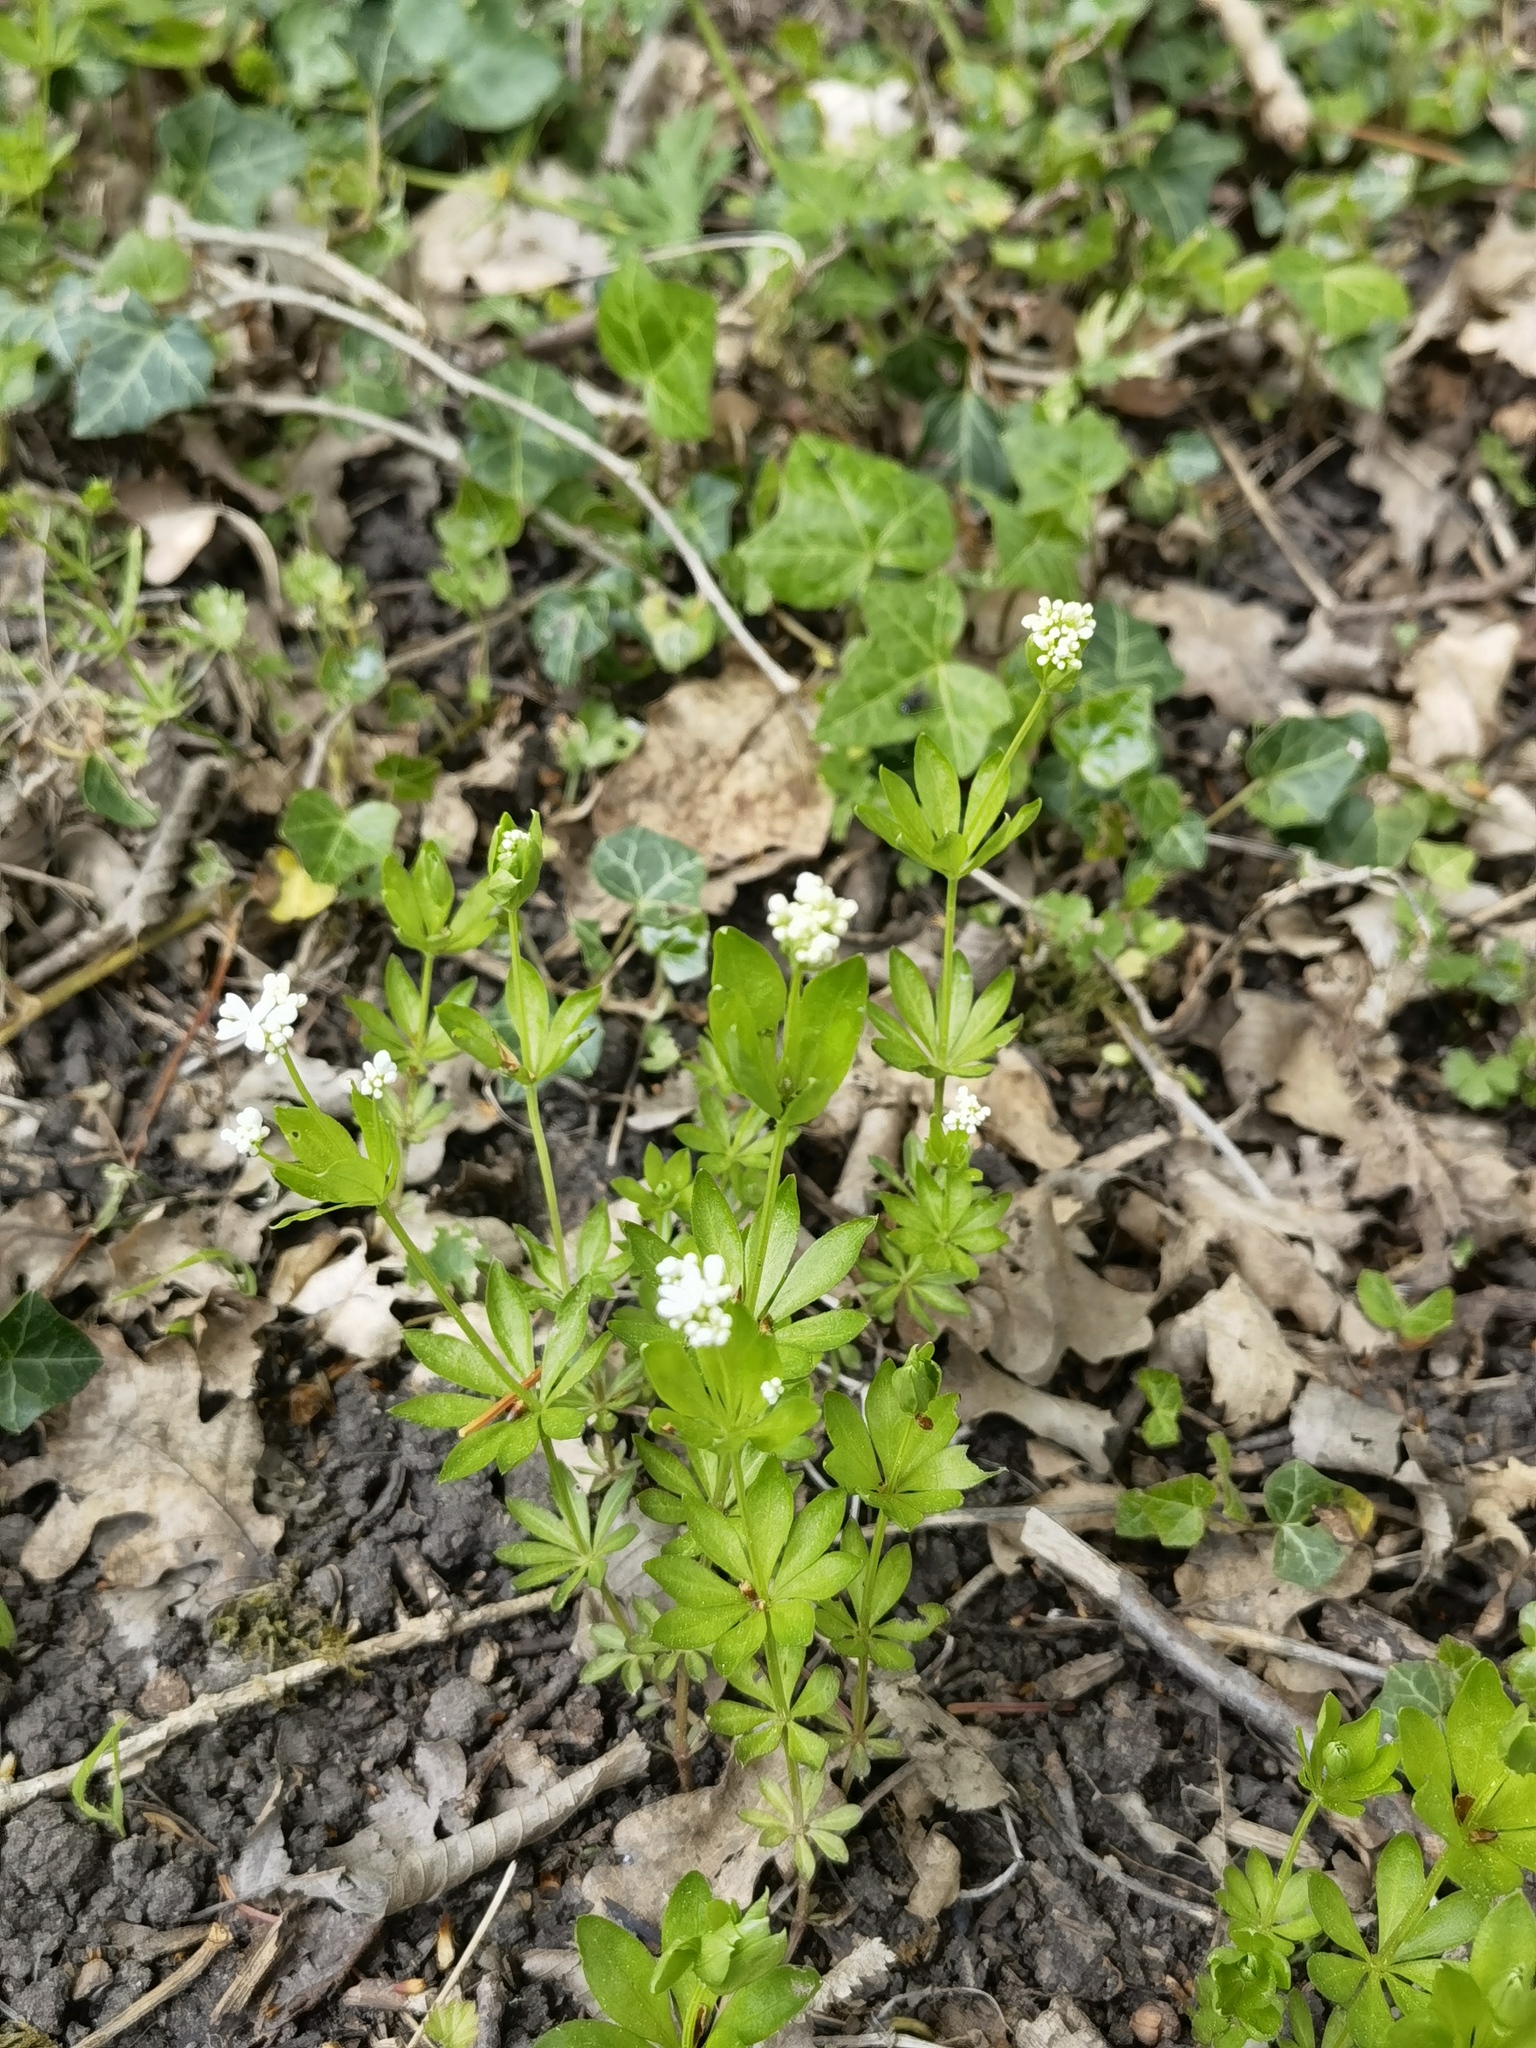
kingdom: Plantae
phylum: Tracheophyta
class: Magnoliopsida
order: Gentianales
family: Rubiaceae
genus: Galium
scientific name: Galium odoratum
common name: Sweet woodruff
